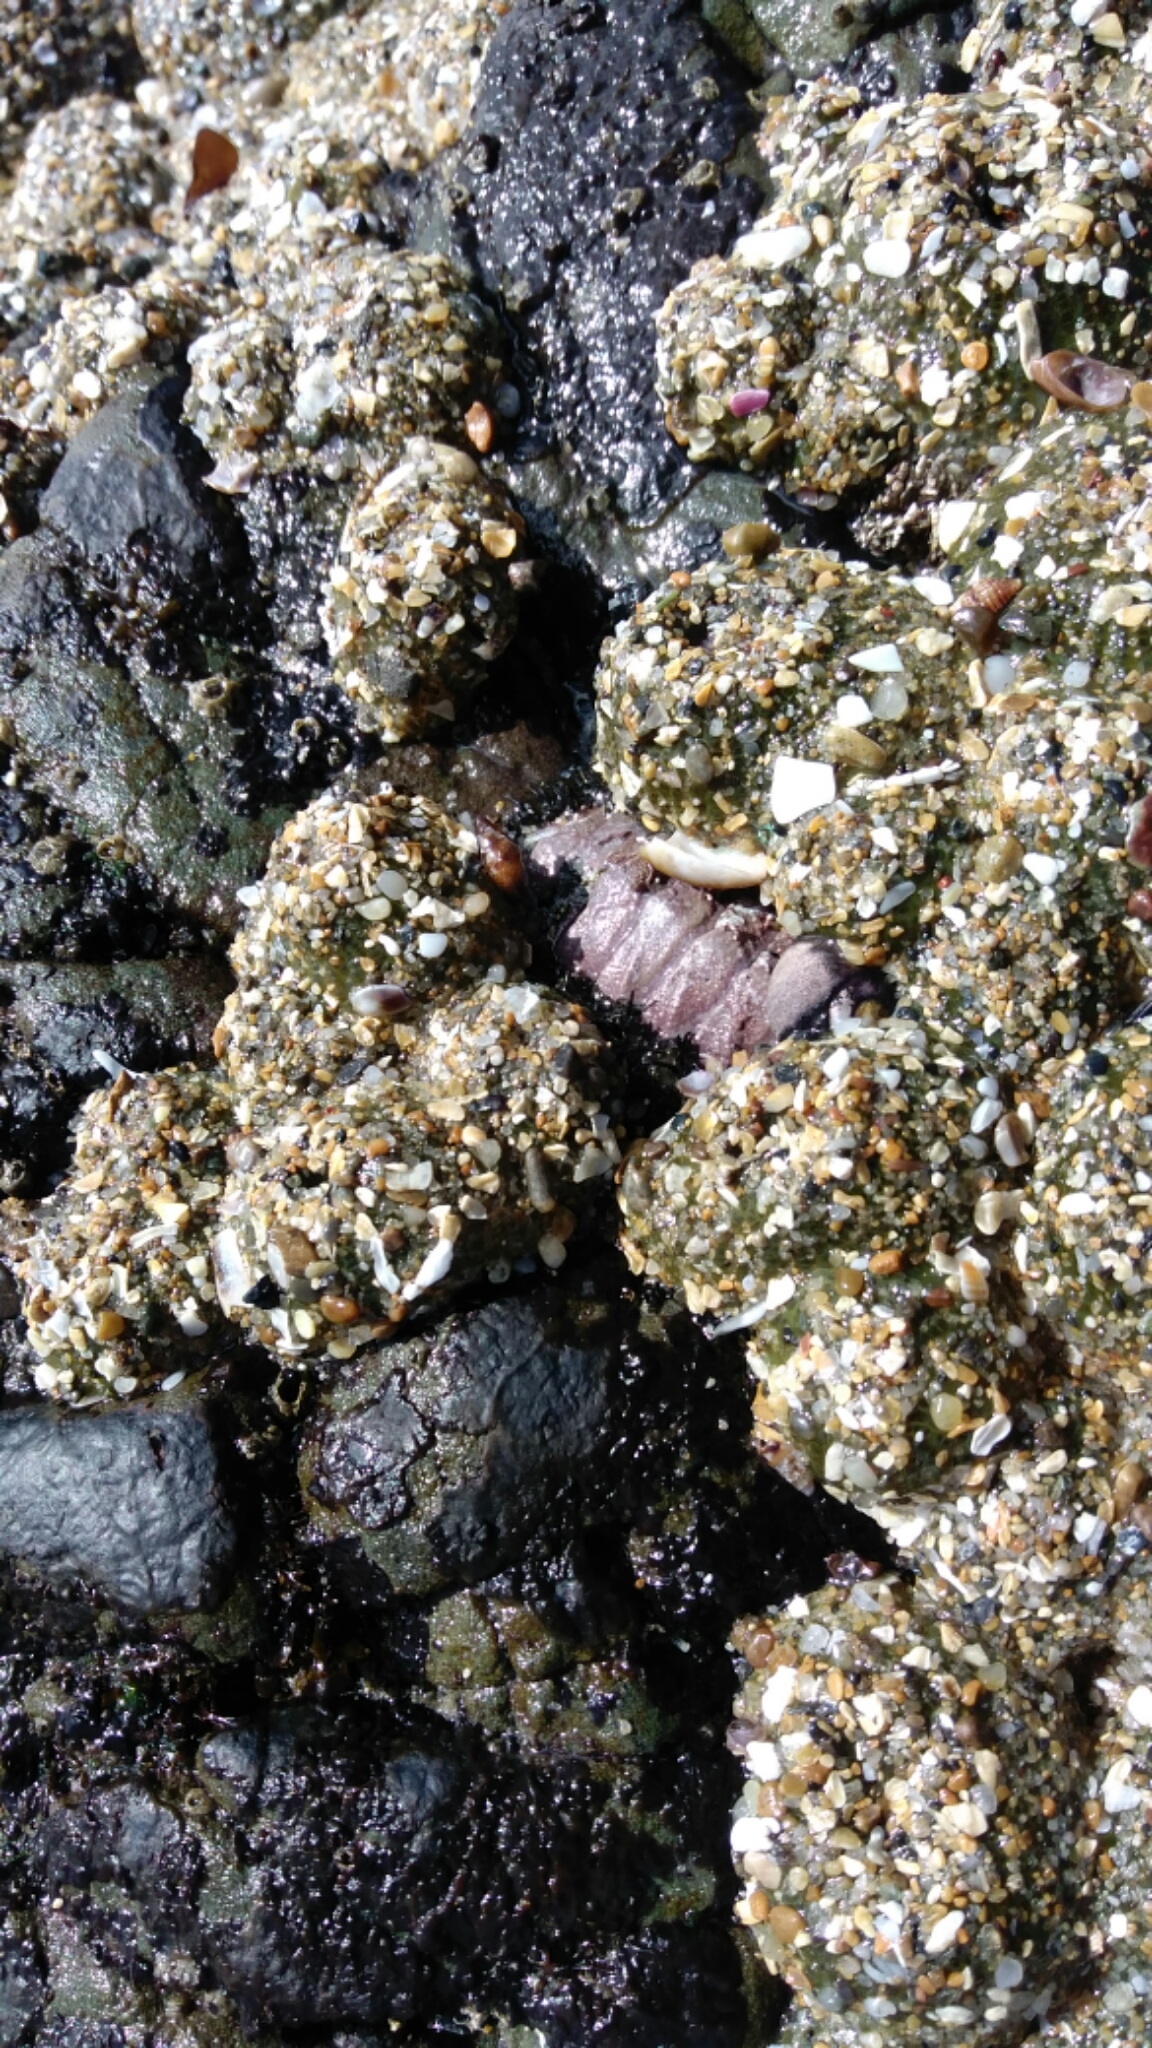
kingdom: Animalia
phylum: Mollusca
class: Polyplacophora
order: Chitonida
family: Mopaliidae
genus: Mopalia
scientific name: Mopalia muscosa
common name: Mossy chiton
